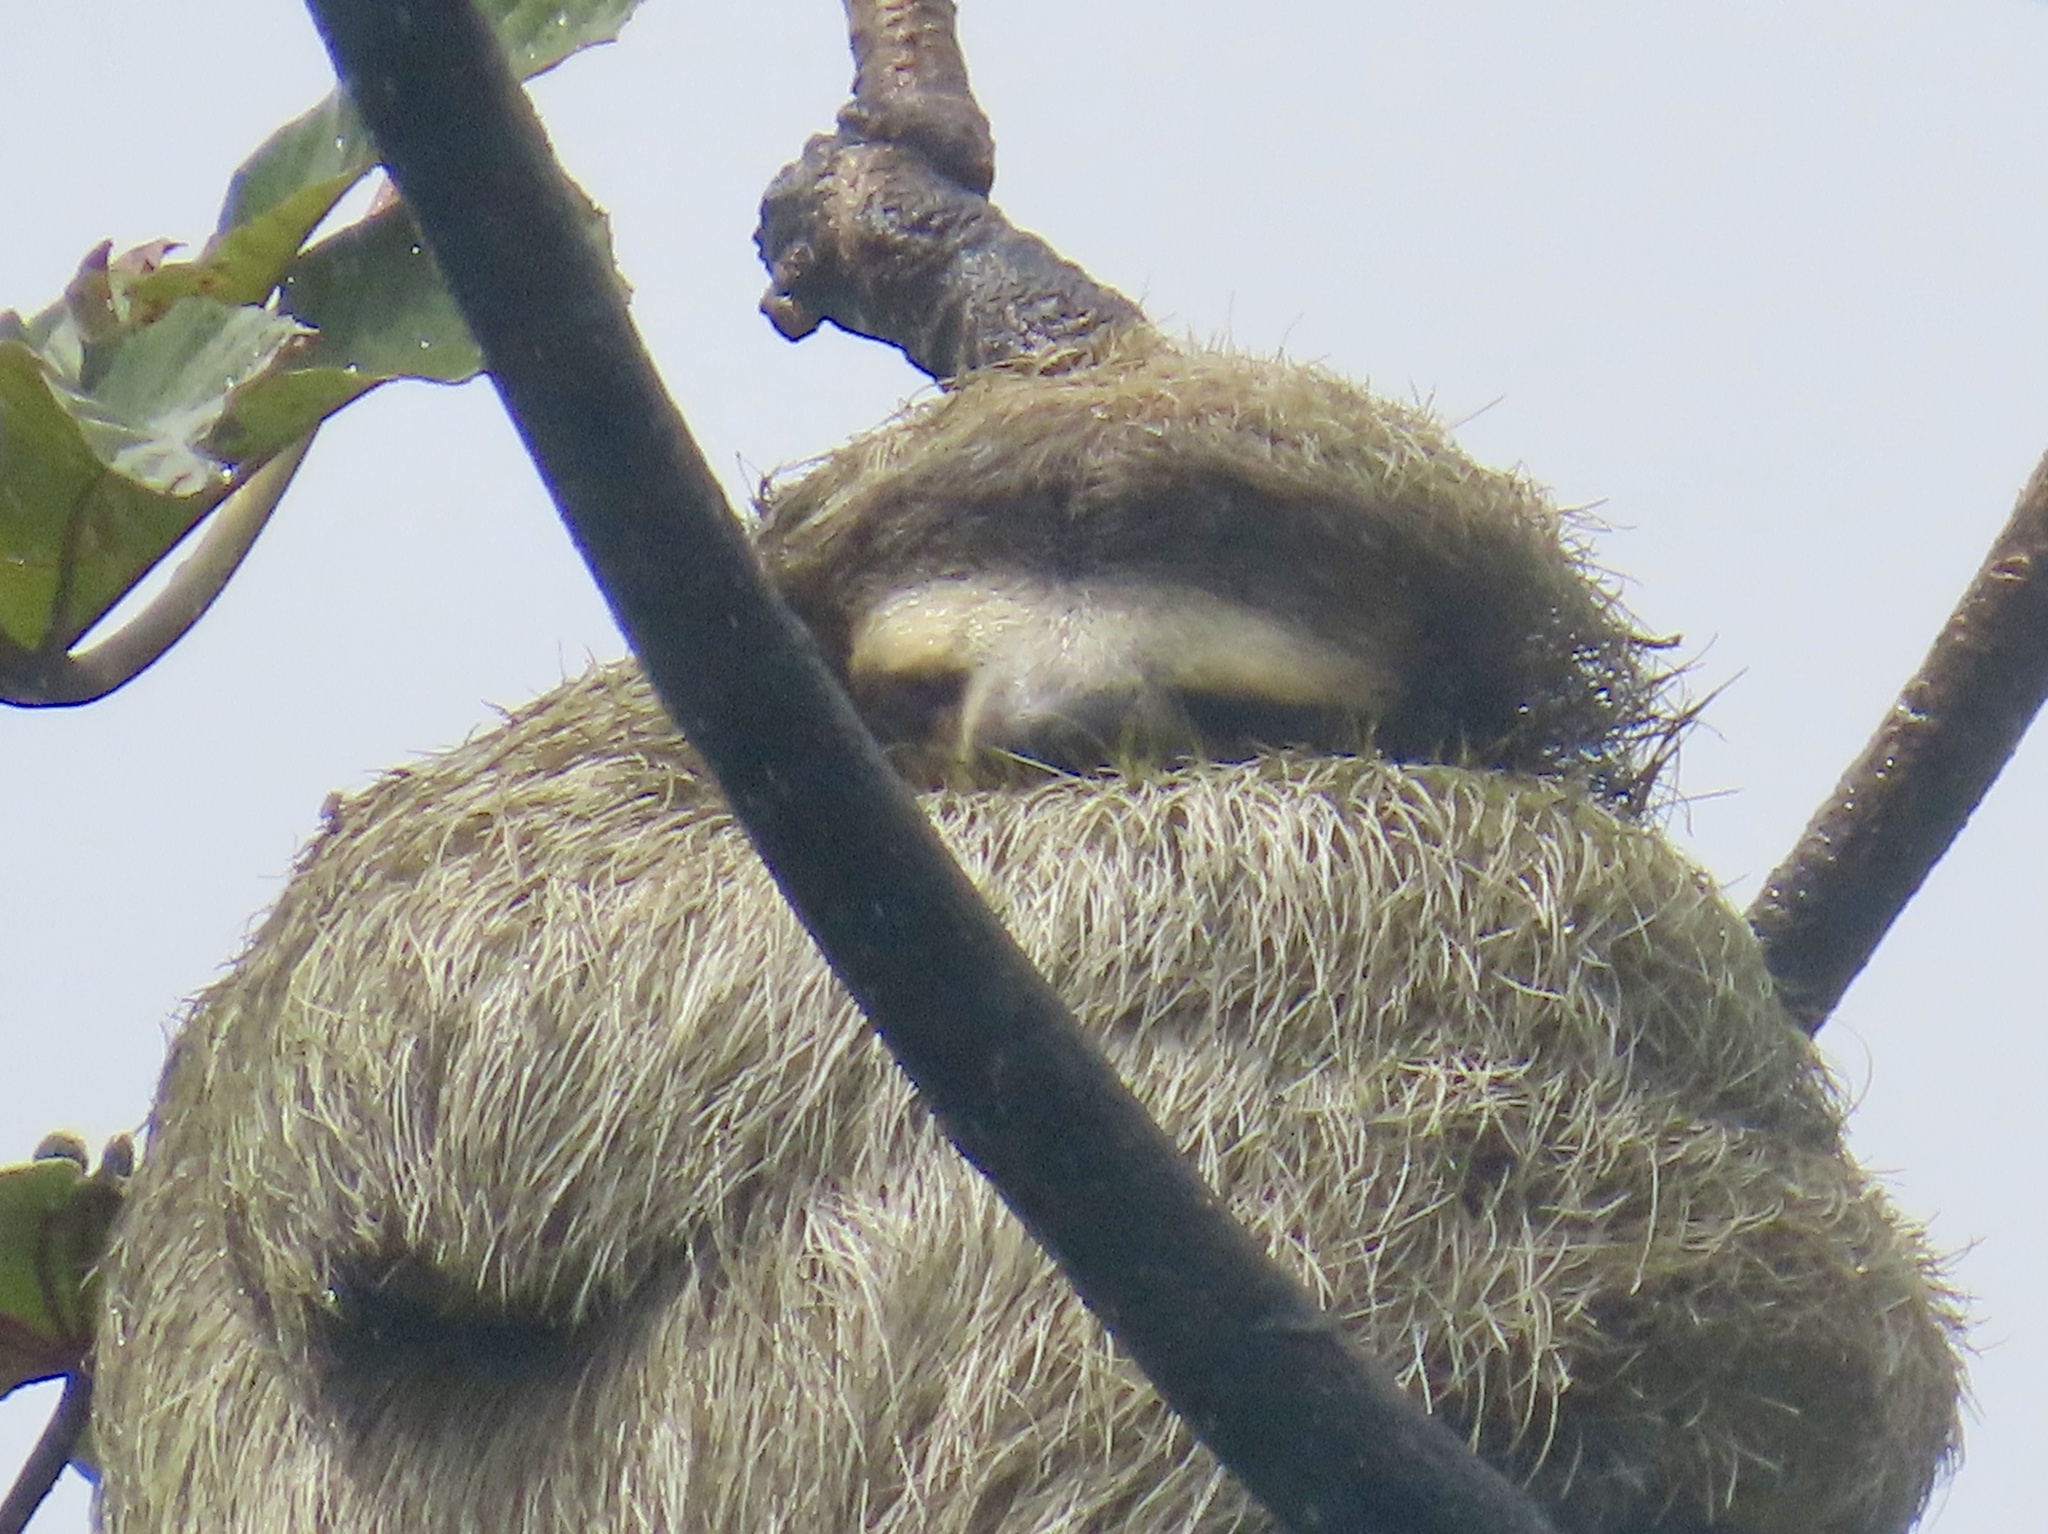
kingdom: Animalia
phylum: Chordata
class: Mammalia
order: Pilosa
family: Bradypodidae
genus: Bradypus
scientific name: Bradypus variegatus
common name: Brown-throated three-toed sloth
